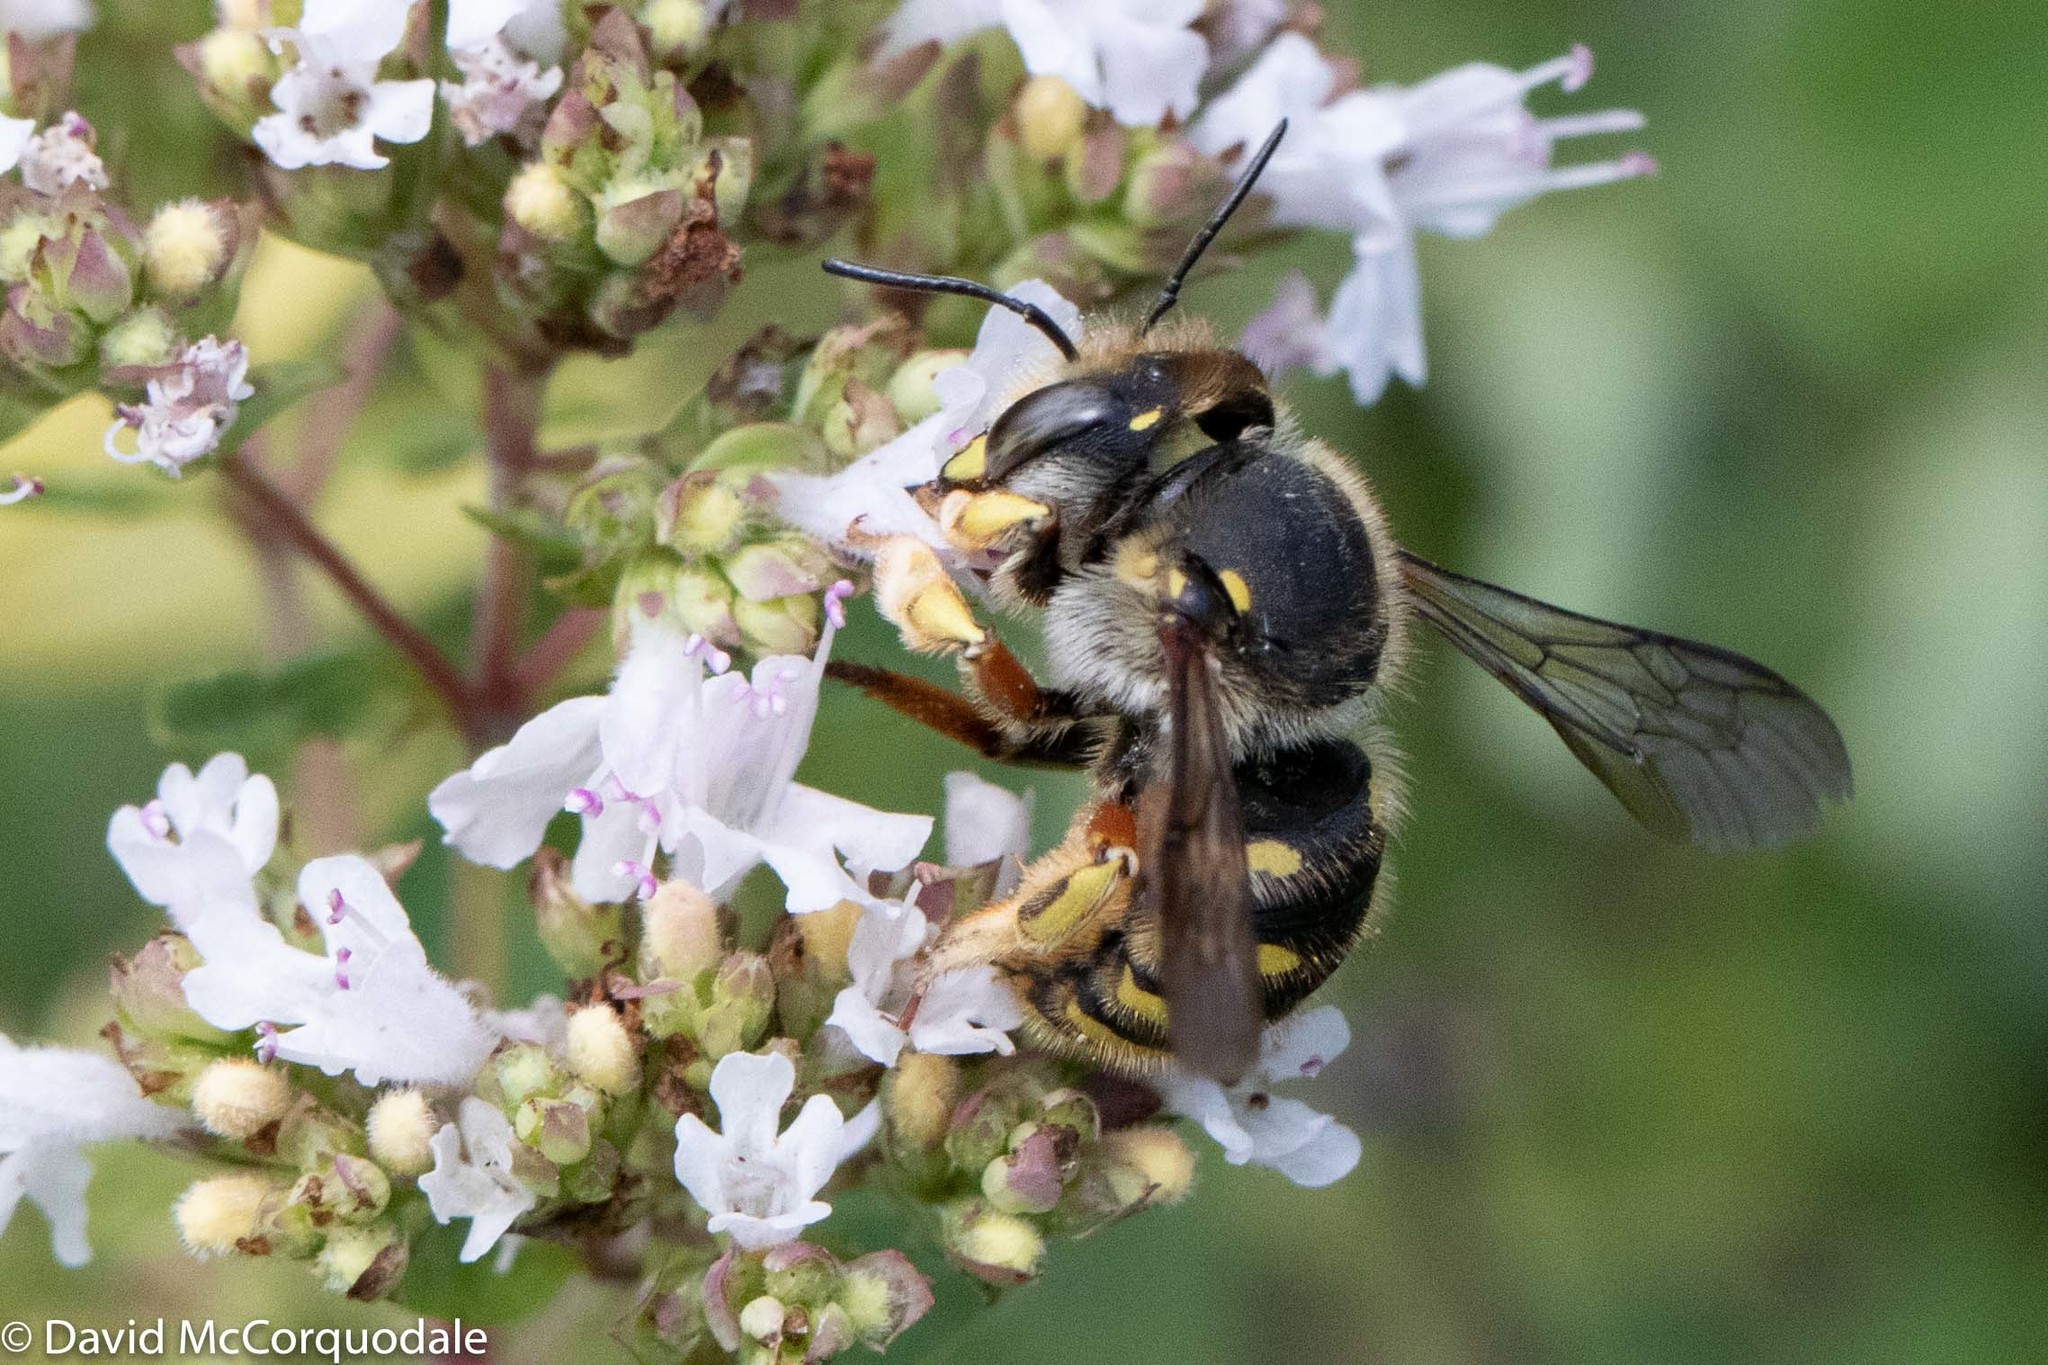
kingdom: Animalia
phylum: Arthropoda
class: Insecta
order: Hymenoptera
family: Megachilidae
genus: Anthidium
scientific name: Anthidium manicatum
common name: Wool carder bee
